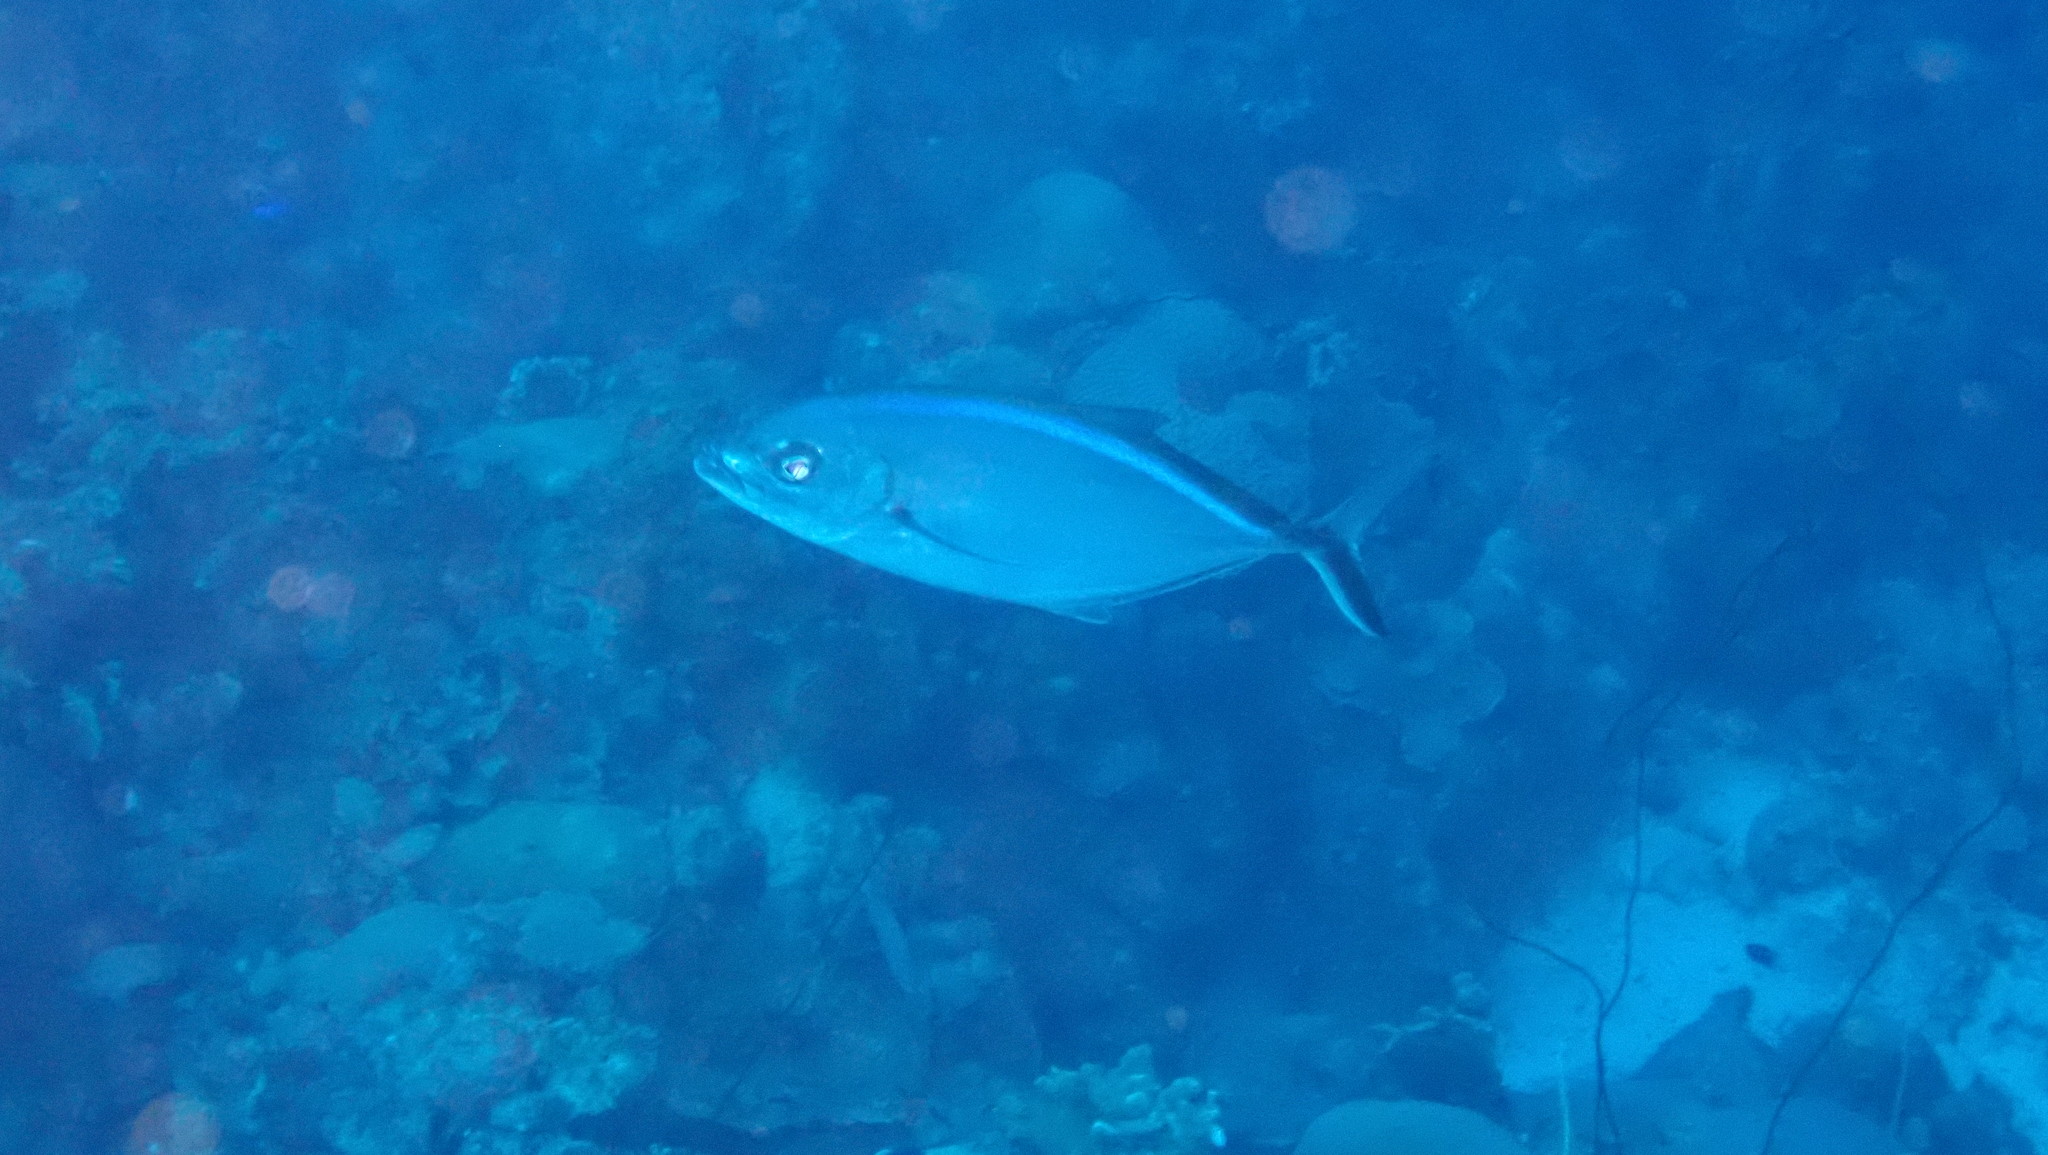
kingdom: Animalia
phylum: Chordata
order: Perciformes
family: Carangidae
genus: Caranx
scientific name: Caranx ruber
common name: Bar jack
